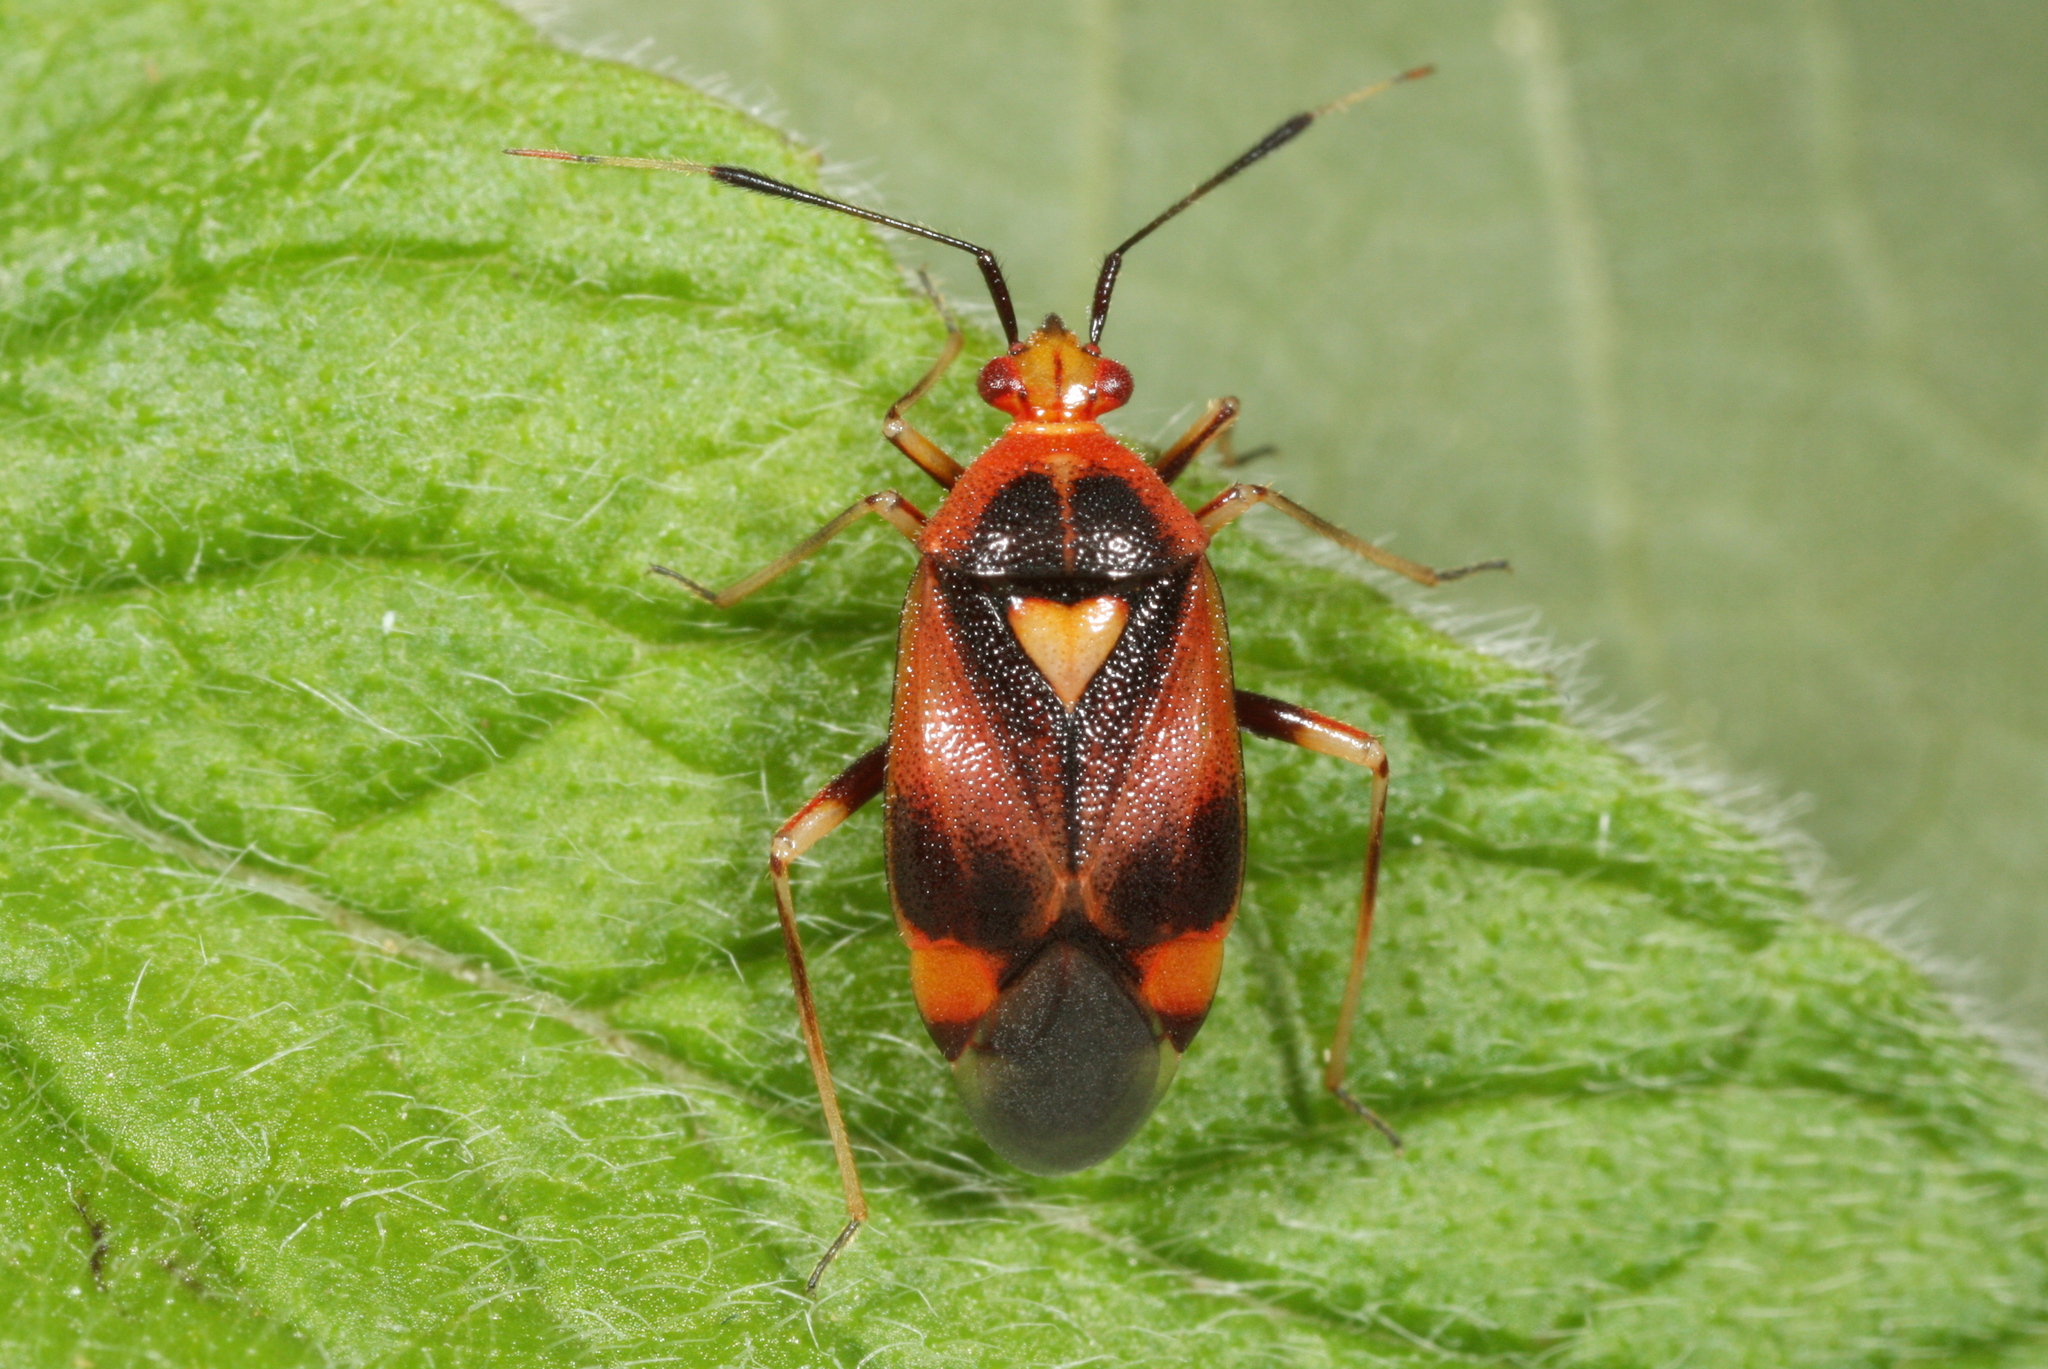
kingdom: Animalia
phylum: Arthropoda
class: Insecta
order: Hemiptera
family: Miridae
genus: Deraeocoris
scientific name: Deraeocoris ruber
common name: Plant bug
